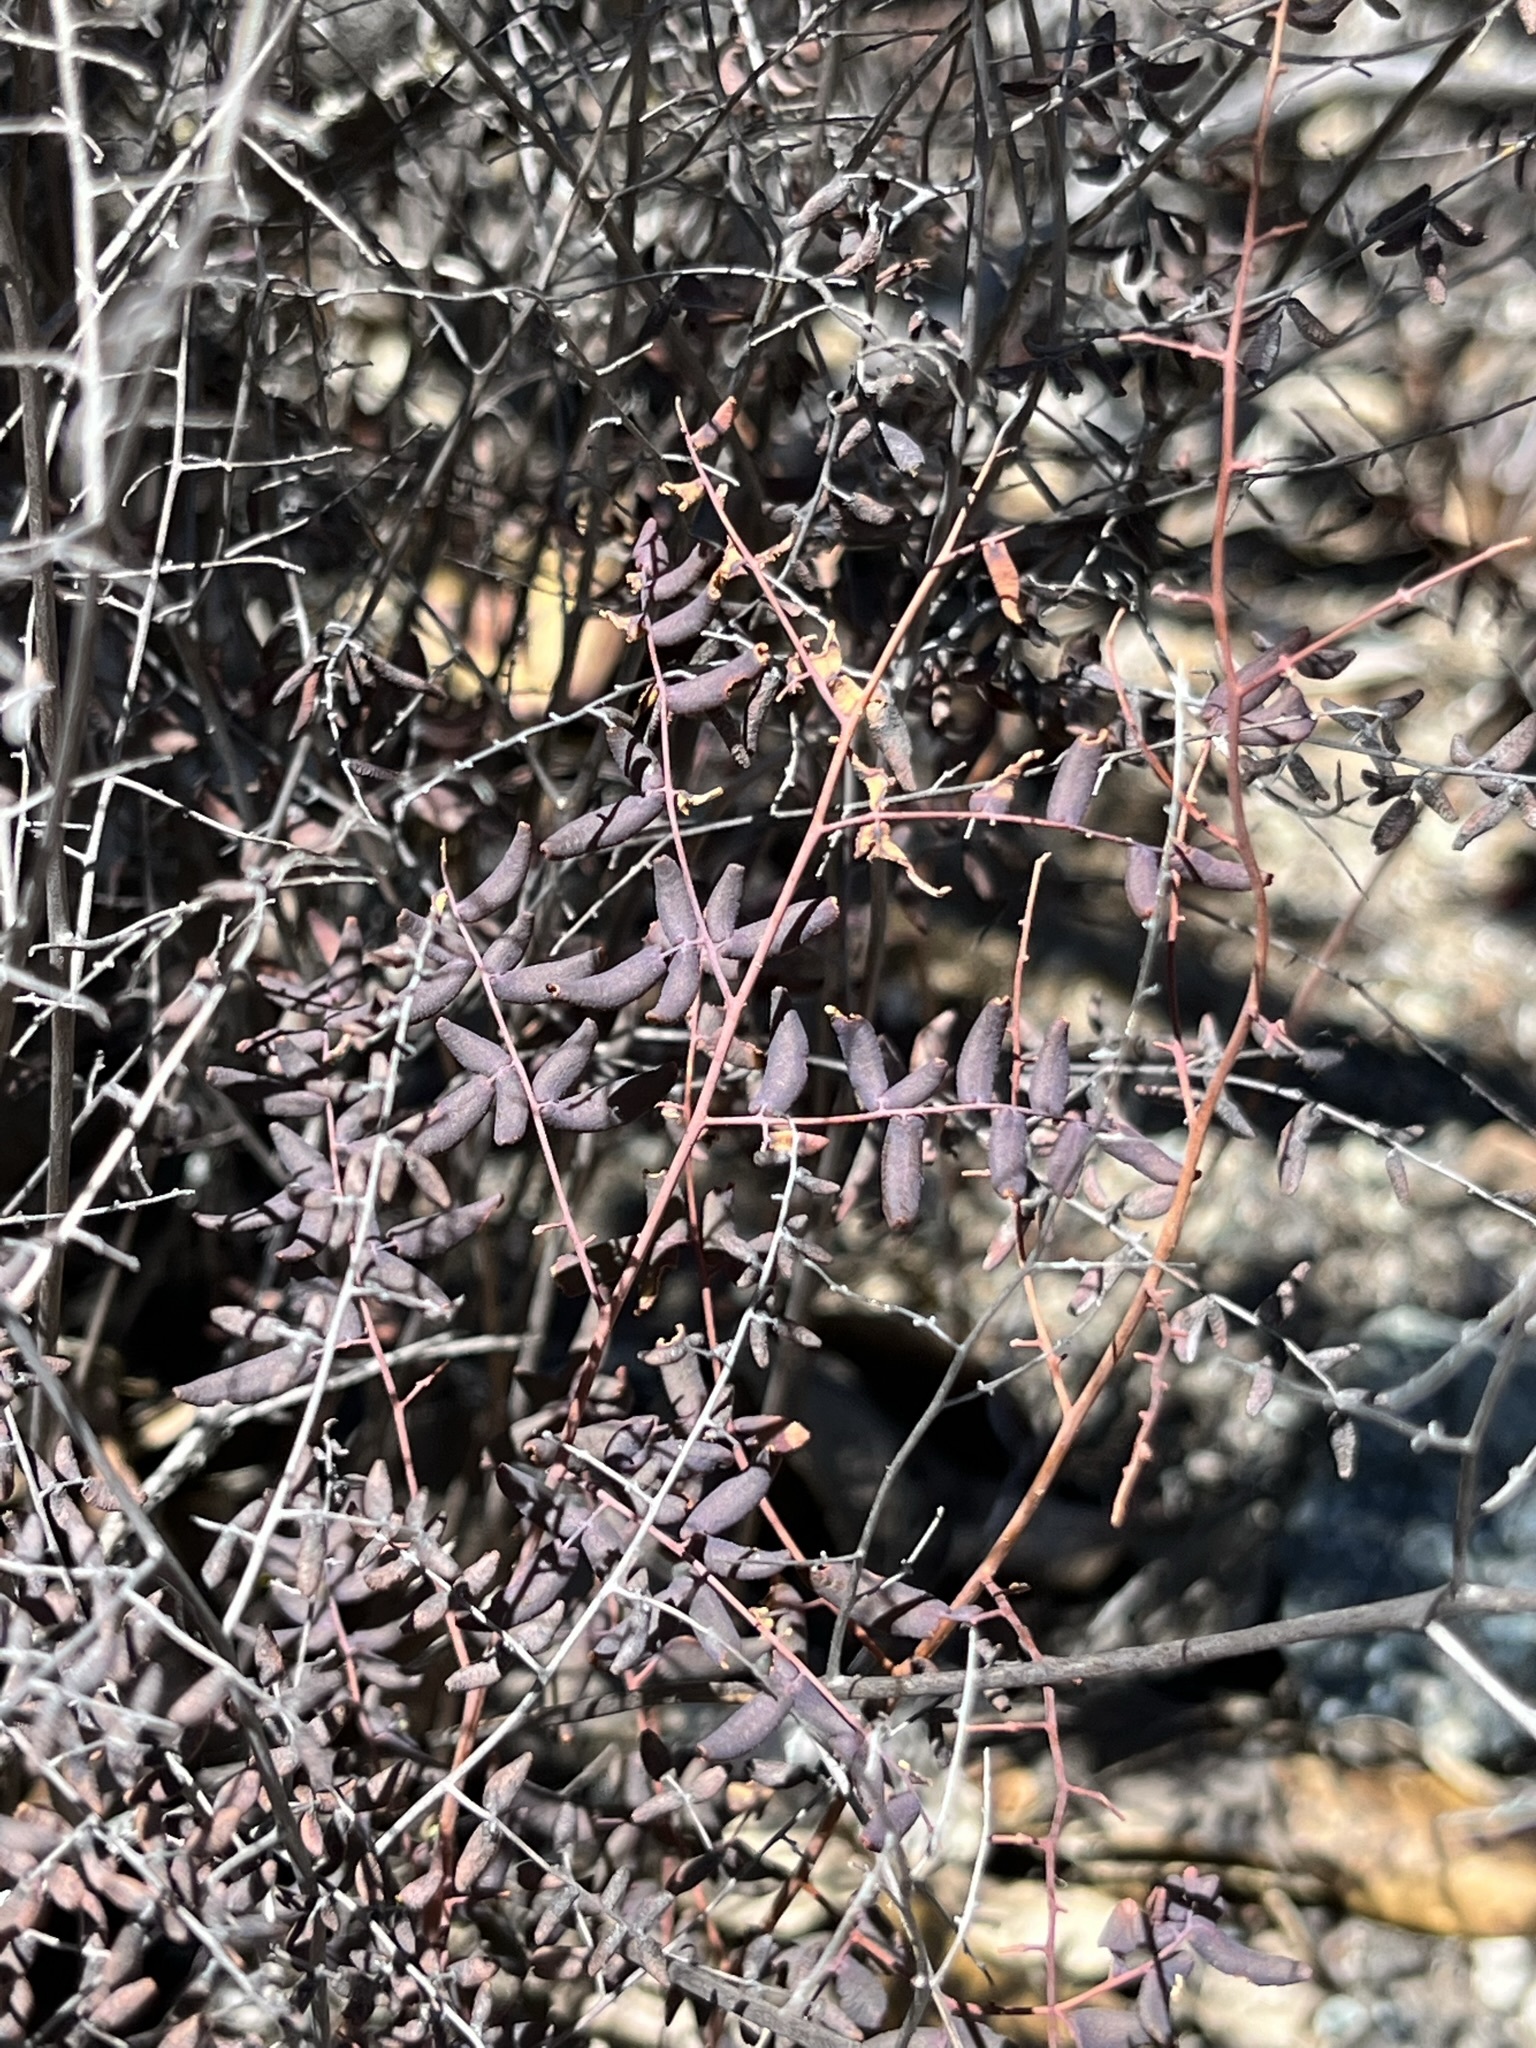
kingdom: Plantae
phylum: Tracheophyta
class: Polypodiopsida
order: Polypodiales
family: Pteridaceae
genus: Pellaea
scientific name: Pellaea andromedifolia
